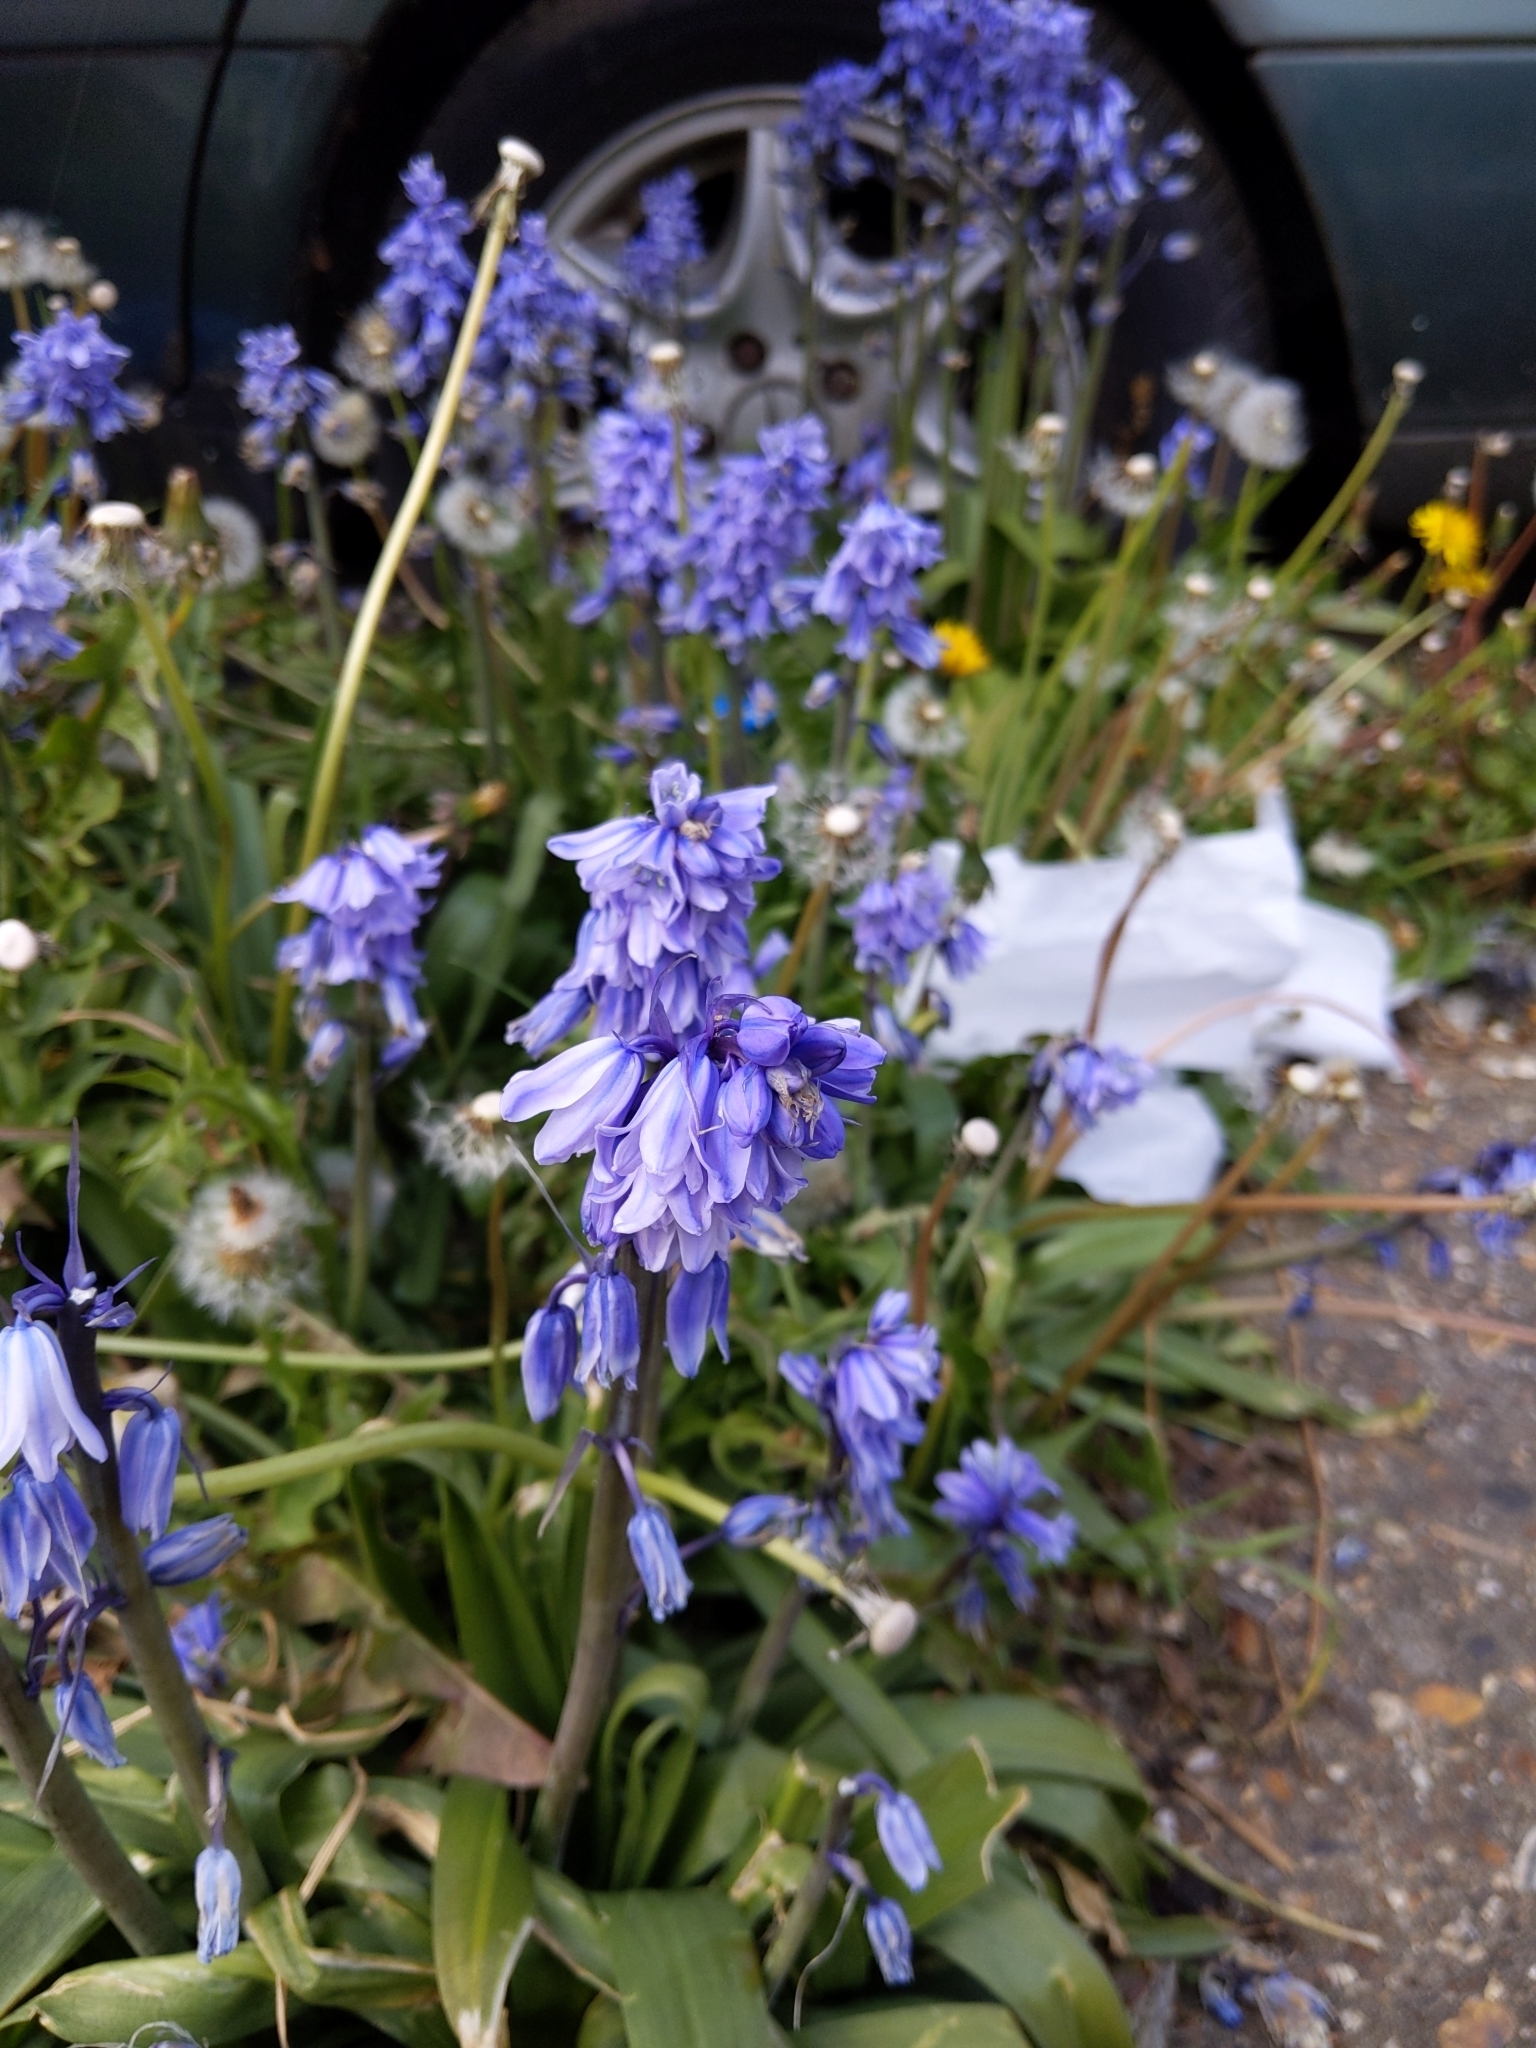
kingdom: Plantae
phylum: Tracheophyta
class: Liliopsida
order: Asparagales
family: Asparagaceae
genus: Hyacinthoides
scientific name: Hyacinthoides massartiana
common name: Hyacinthoides
